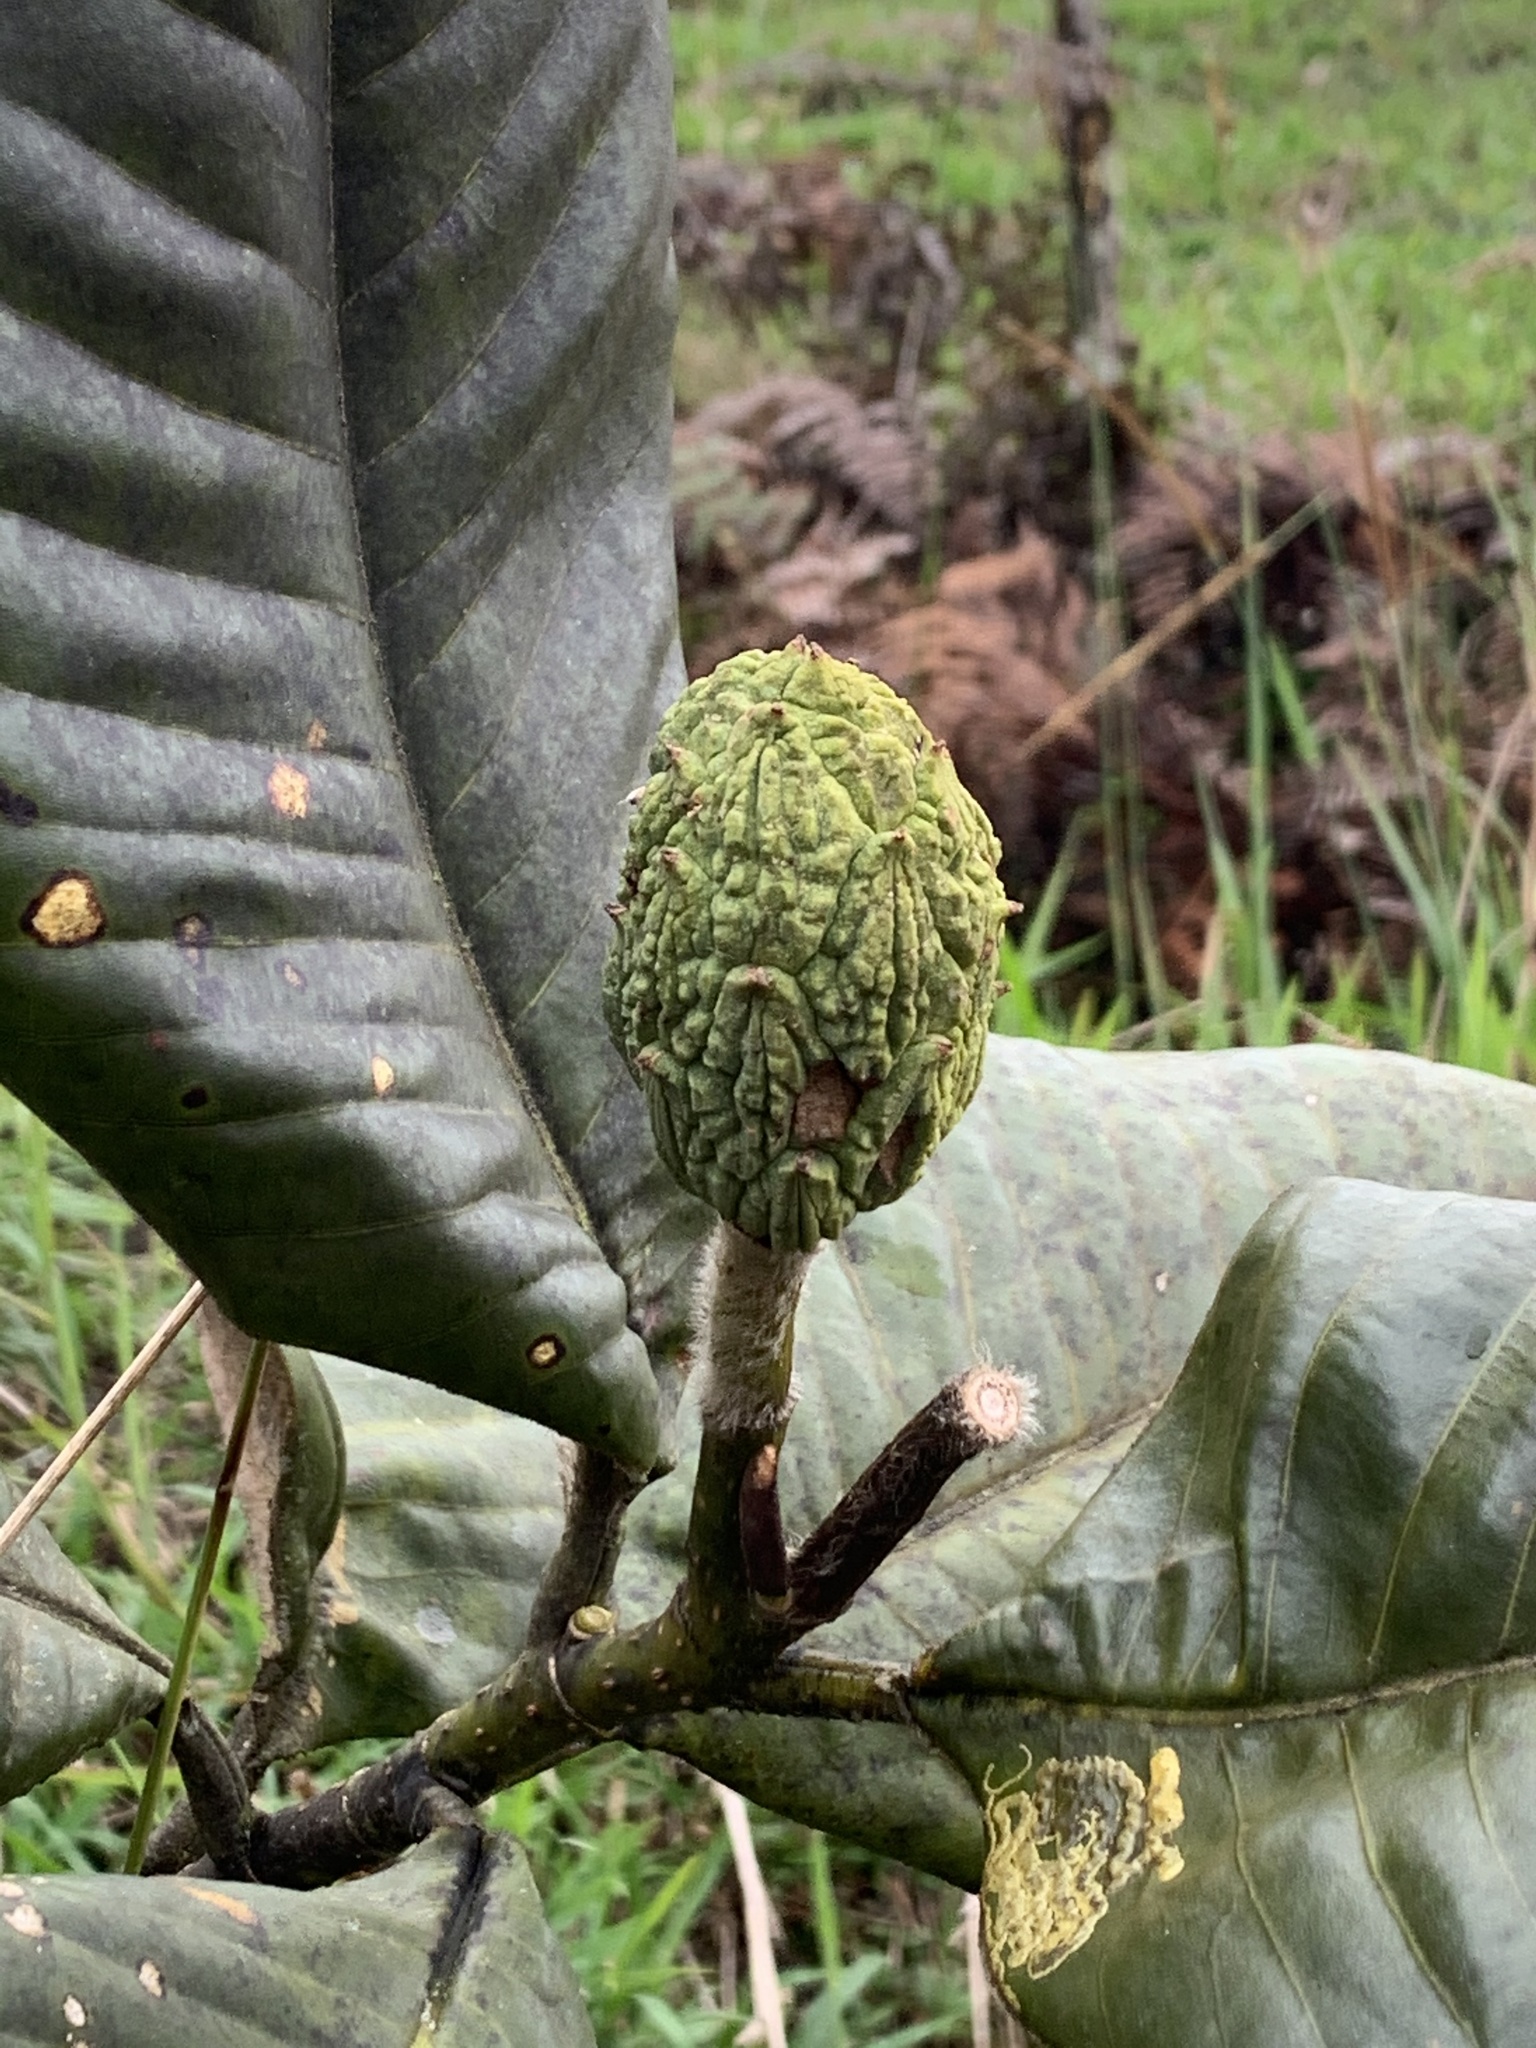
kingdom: Plantae
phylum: Tracheophyta
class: Magnoliopsida
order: Magnoliales
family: Magnoliaceae
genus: Magnolia
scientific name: Magnolia jaenensis
